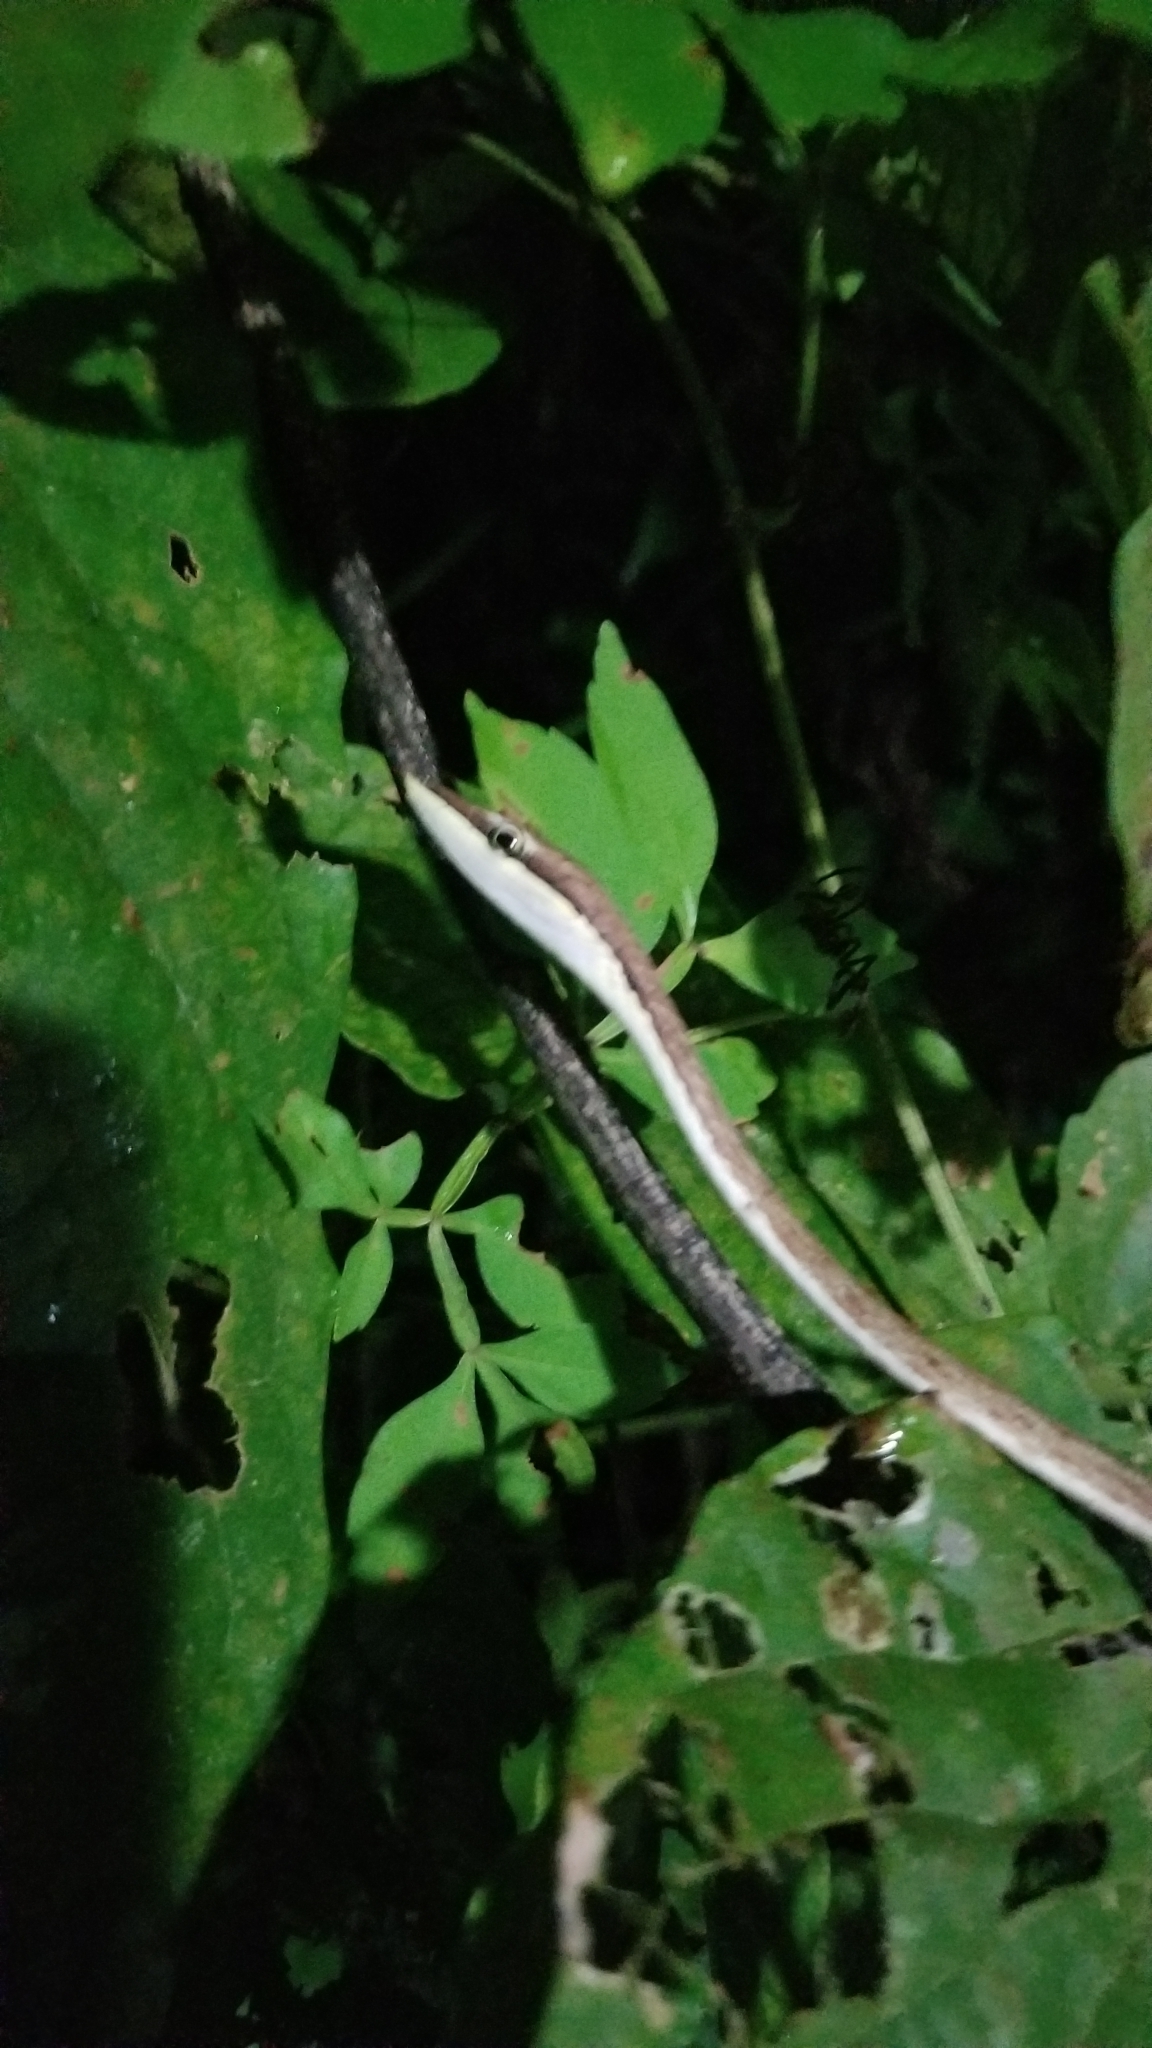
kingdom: Animalia
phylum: Chordata
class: Squamata
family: Colubridae
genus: Oxybelis
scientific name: Oxybelis vittatus
